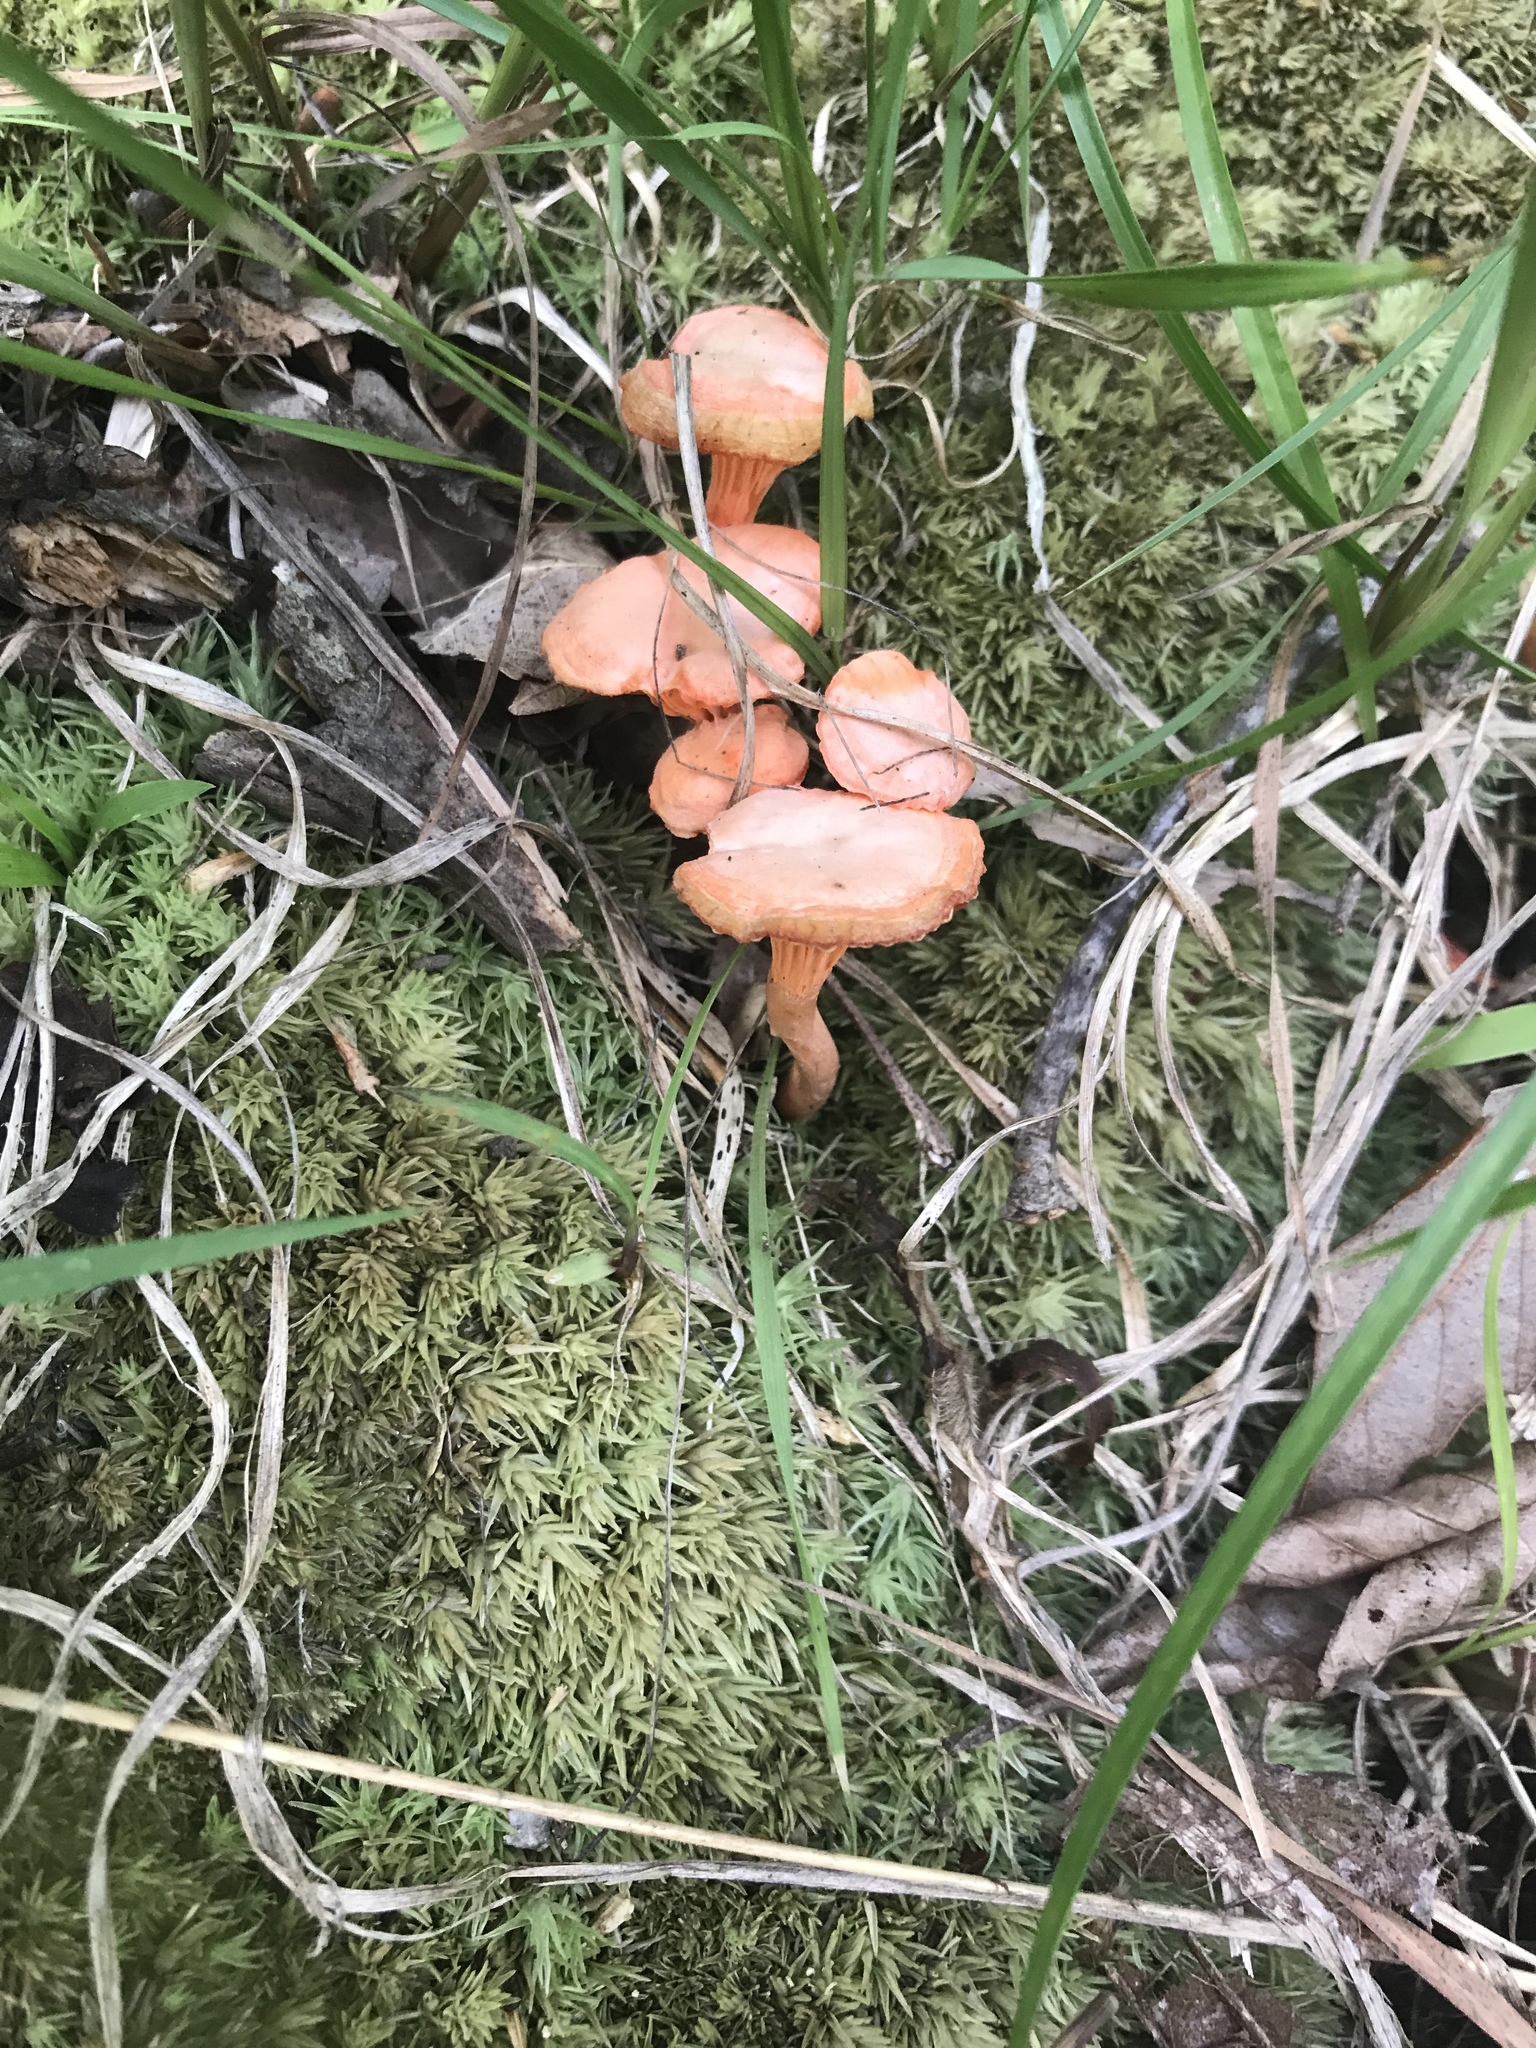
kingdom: Fungi
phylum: Basidiomycota
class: Agaricomycetes
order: Cantharellales
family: Hydnaceae
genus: Cantharellus
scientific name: Cantharellus cinnabarinus
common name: Cinnabar chanterelle
